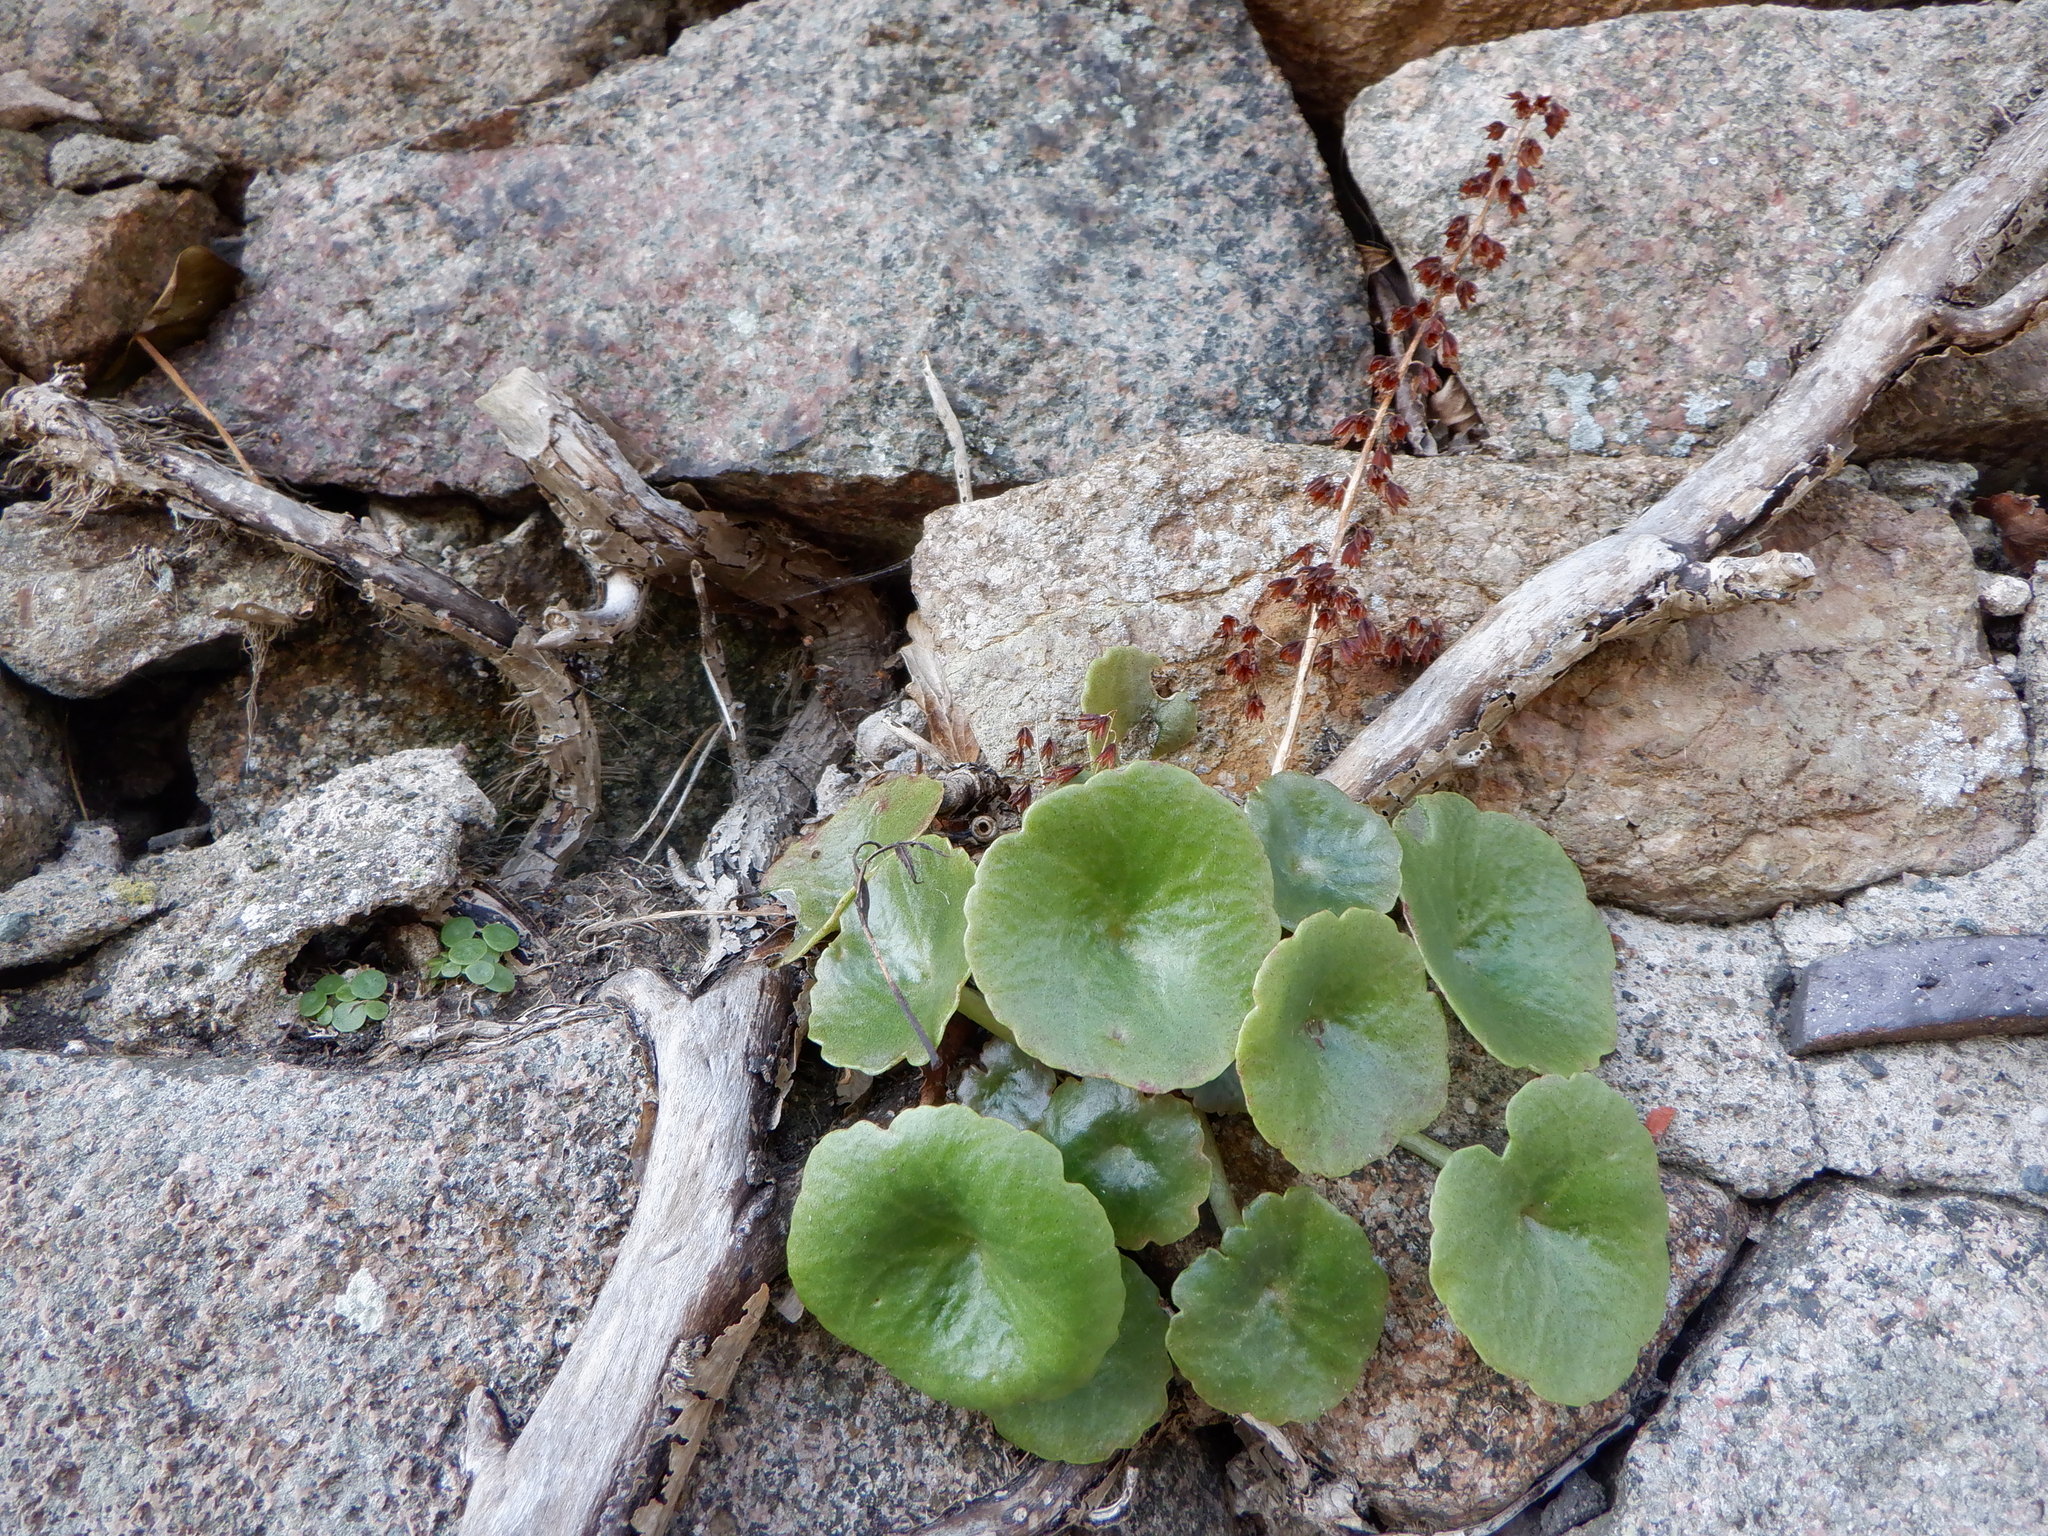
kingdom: Plantae
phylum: Tracheophyta
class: Magnoliopsida
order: Saxifragales
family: Crassulaceae
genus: Umbilicus
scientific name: Umbilicus rupestris
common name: Navelwort
